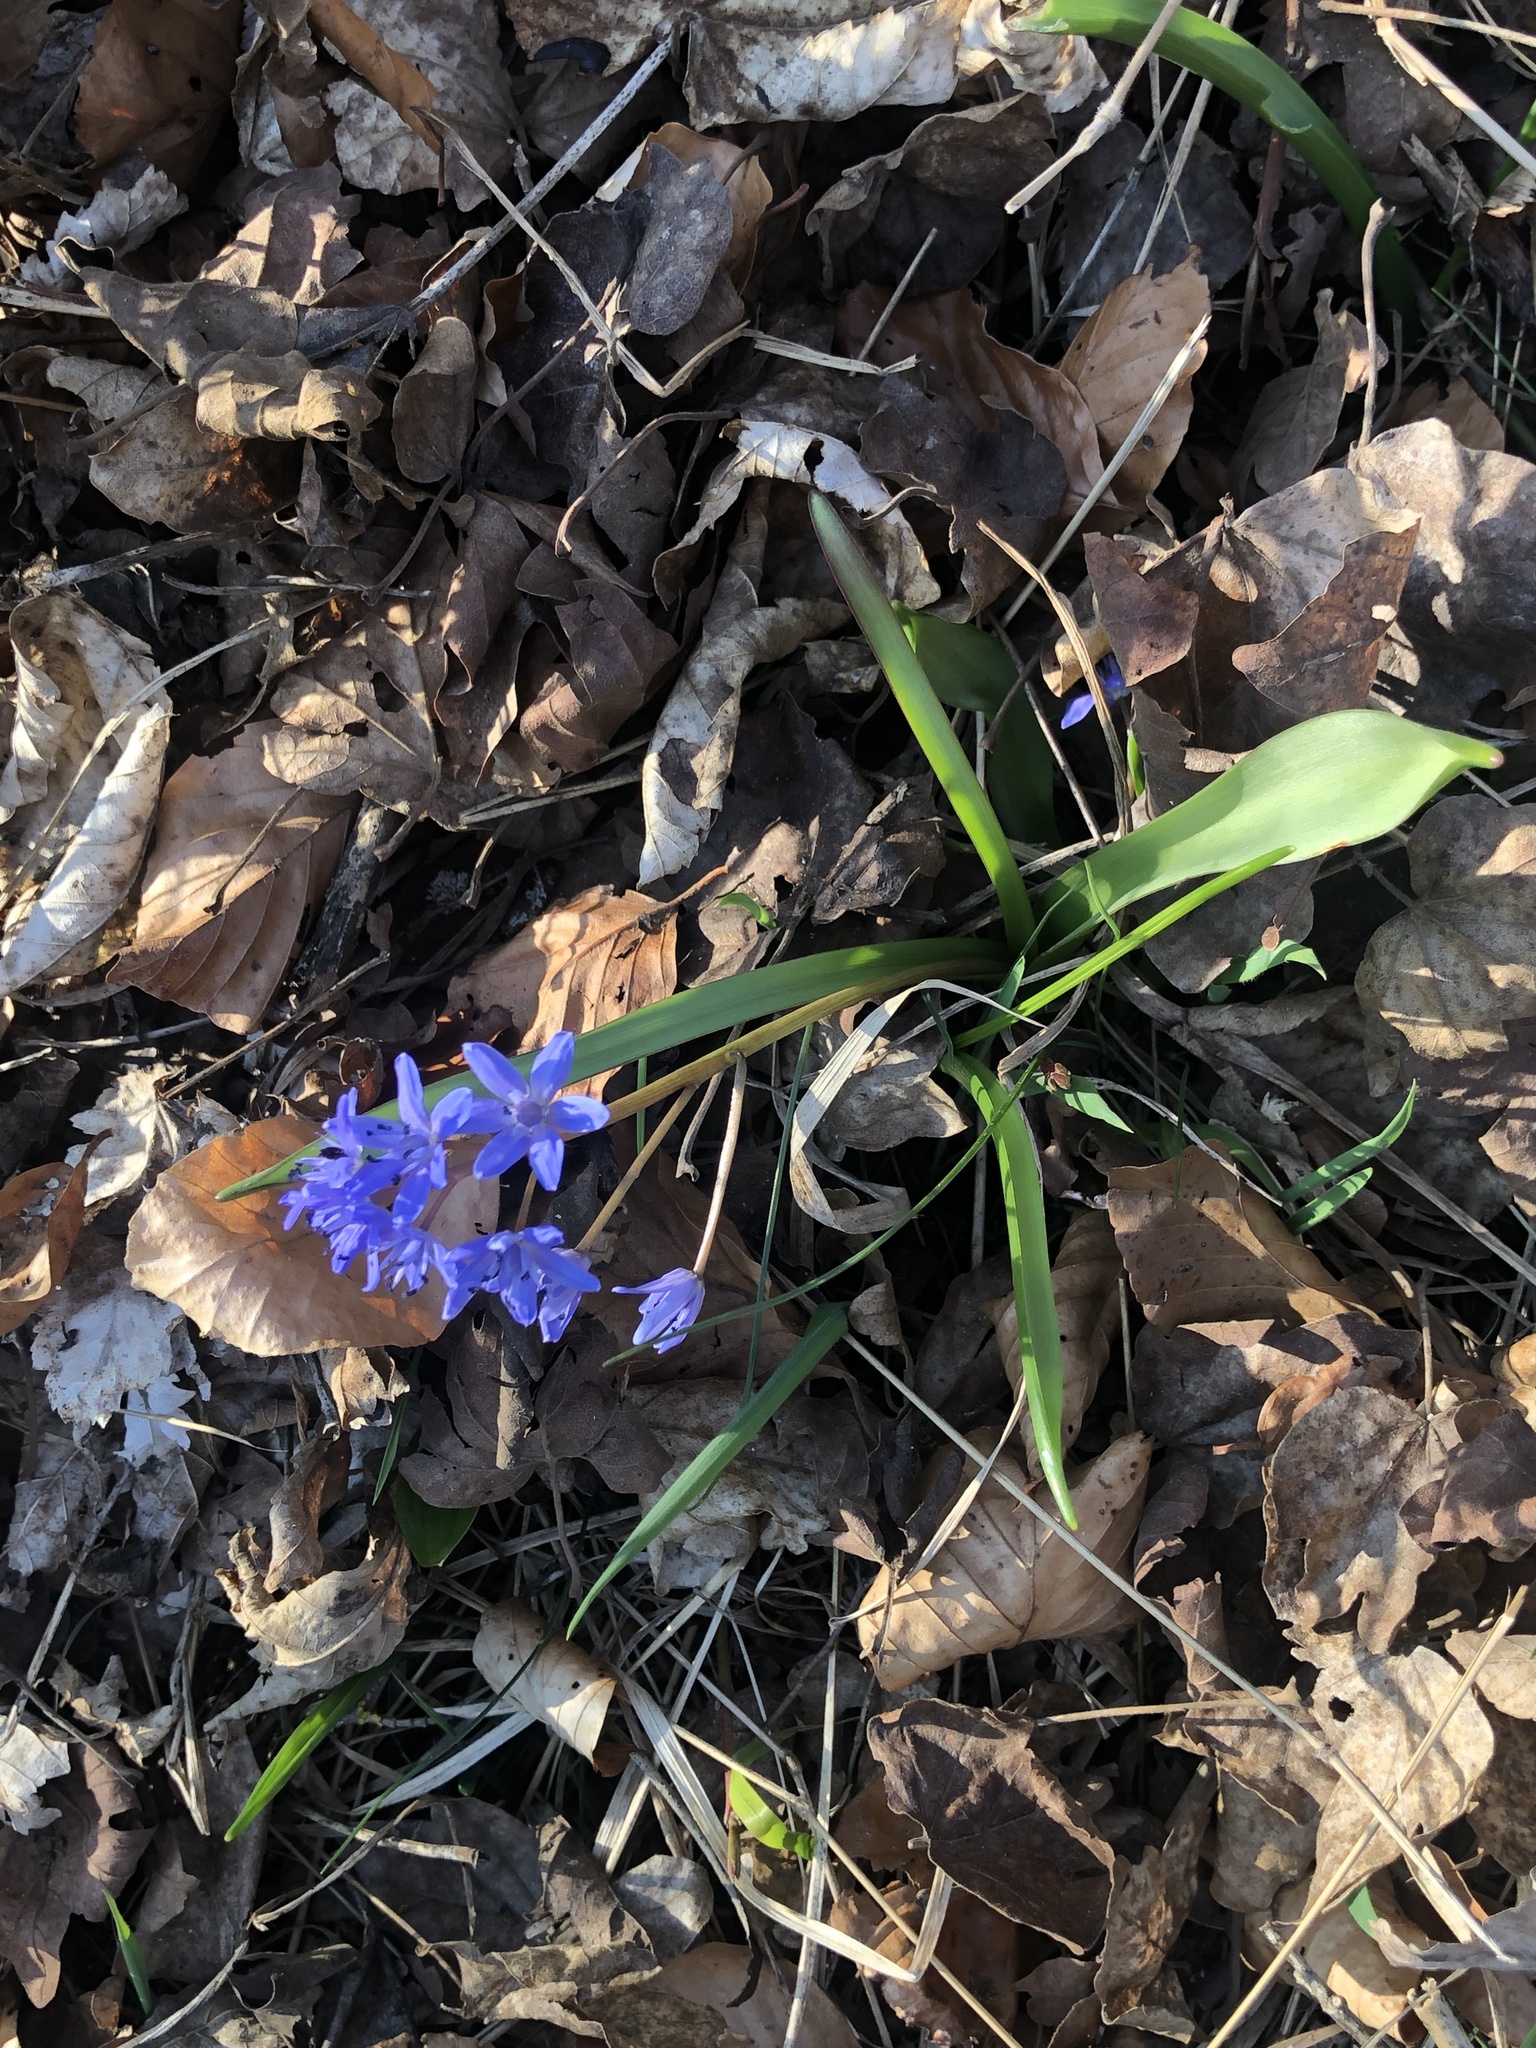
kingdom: Plantae
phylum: Tracheophyta
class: Liliopsida
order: Asparagales
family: Asparagaceae
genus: Scilla
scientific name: Scilla bifolia
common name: Alpine squill
